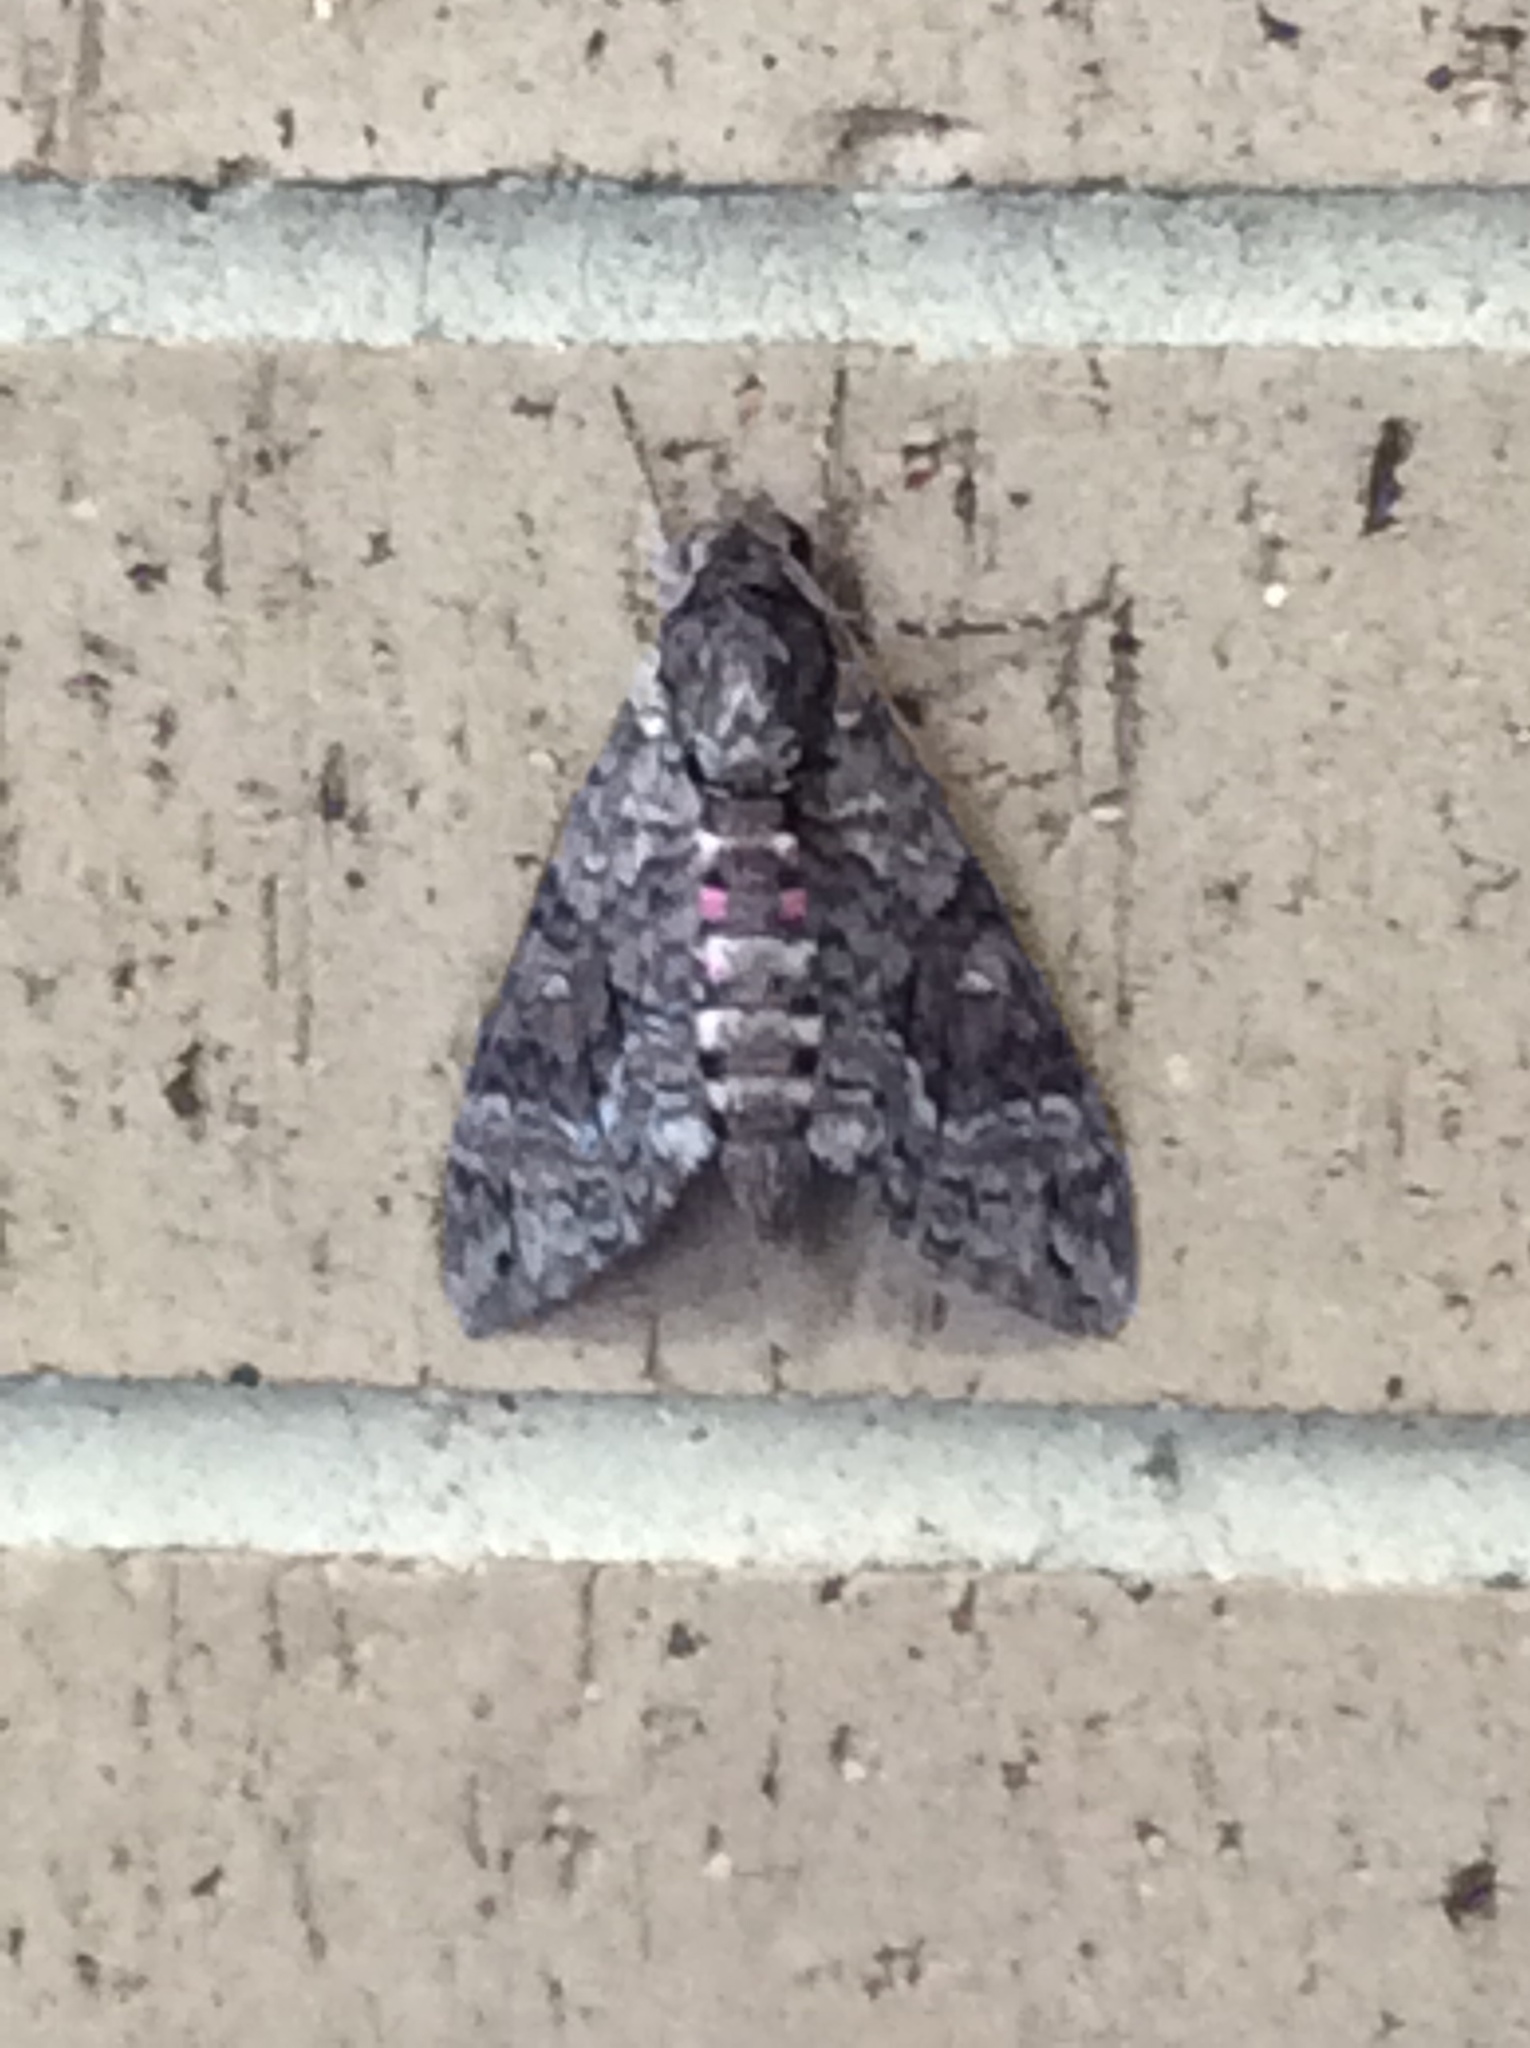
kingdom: Animalia
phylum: Arthropoda
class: Insecta
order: Lepidoptera
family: Sphingidae
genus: Agrius
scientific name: Agrius cingulata
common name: Pink-spotted hawkmoth
